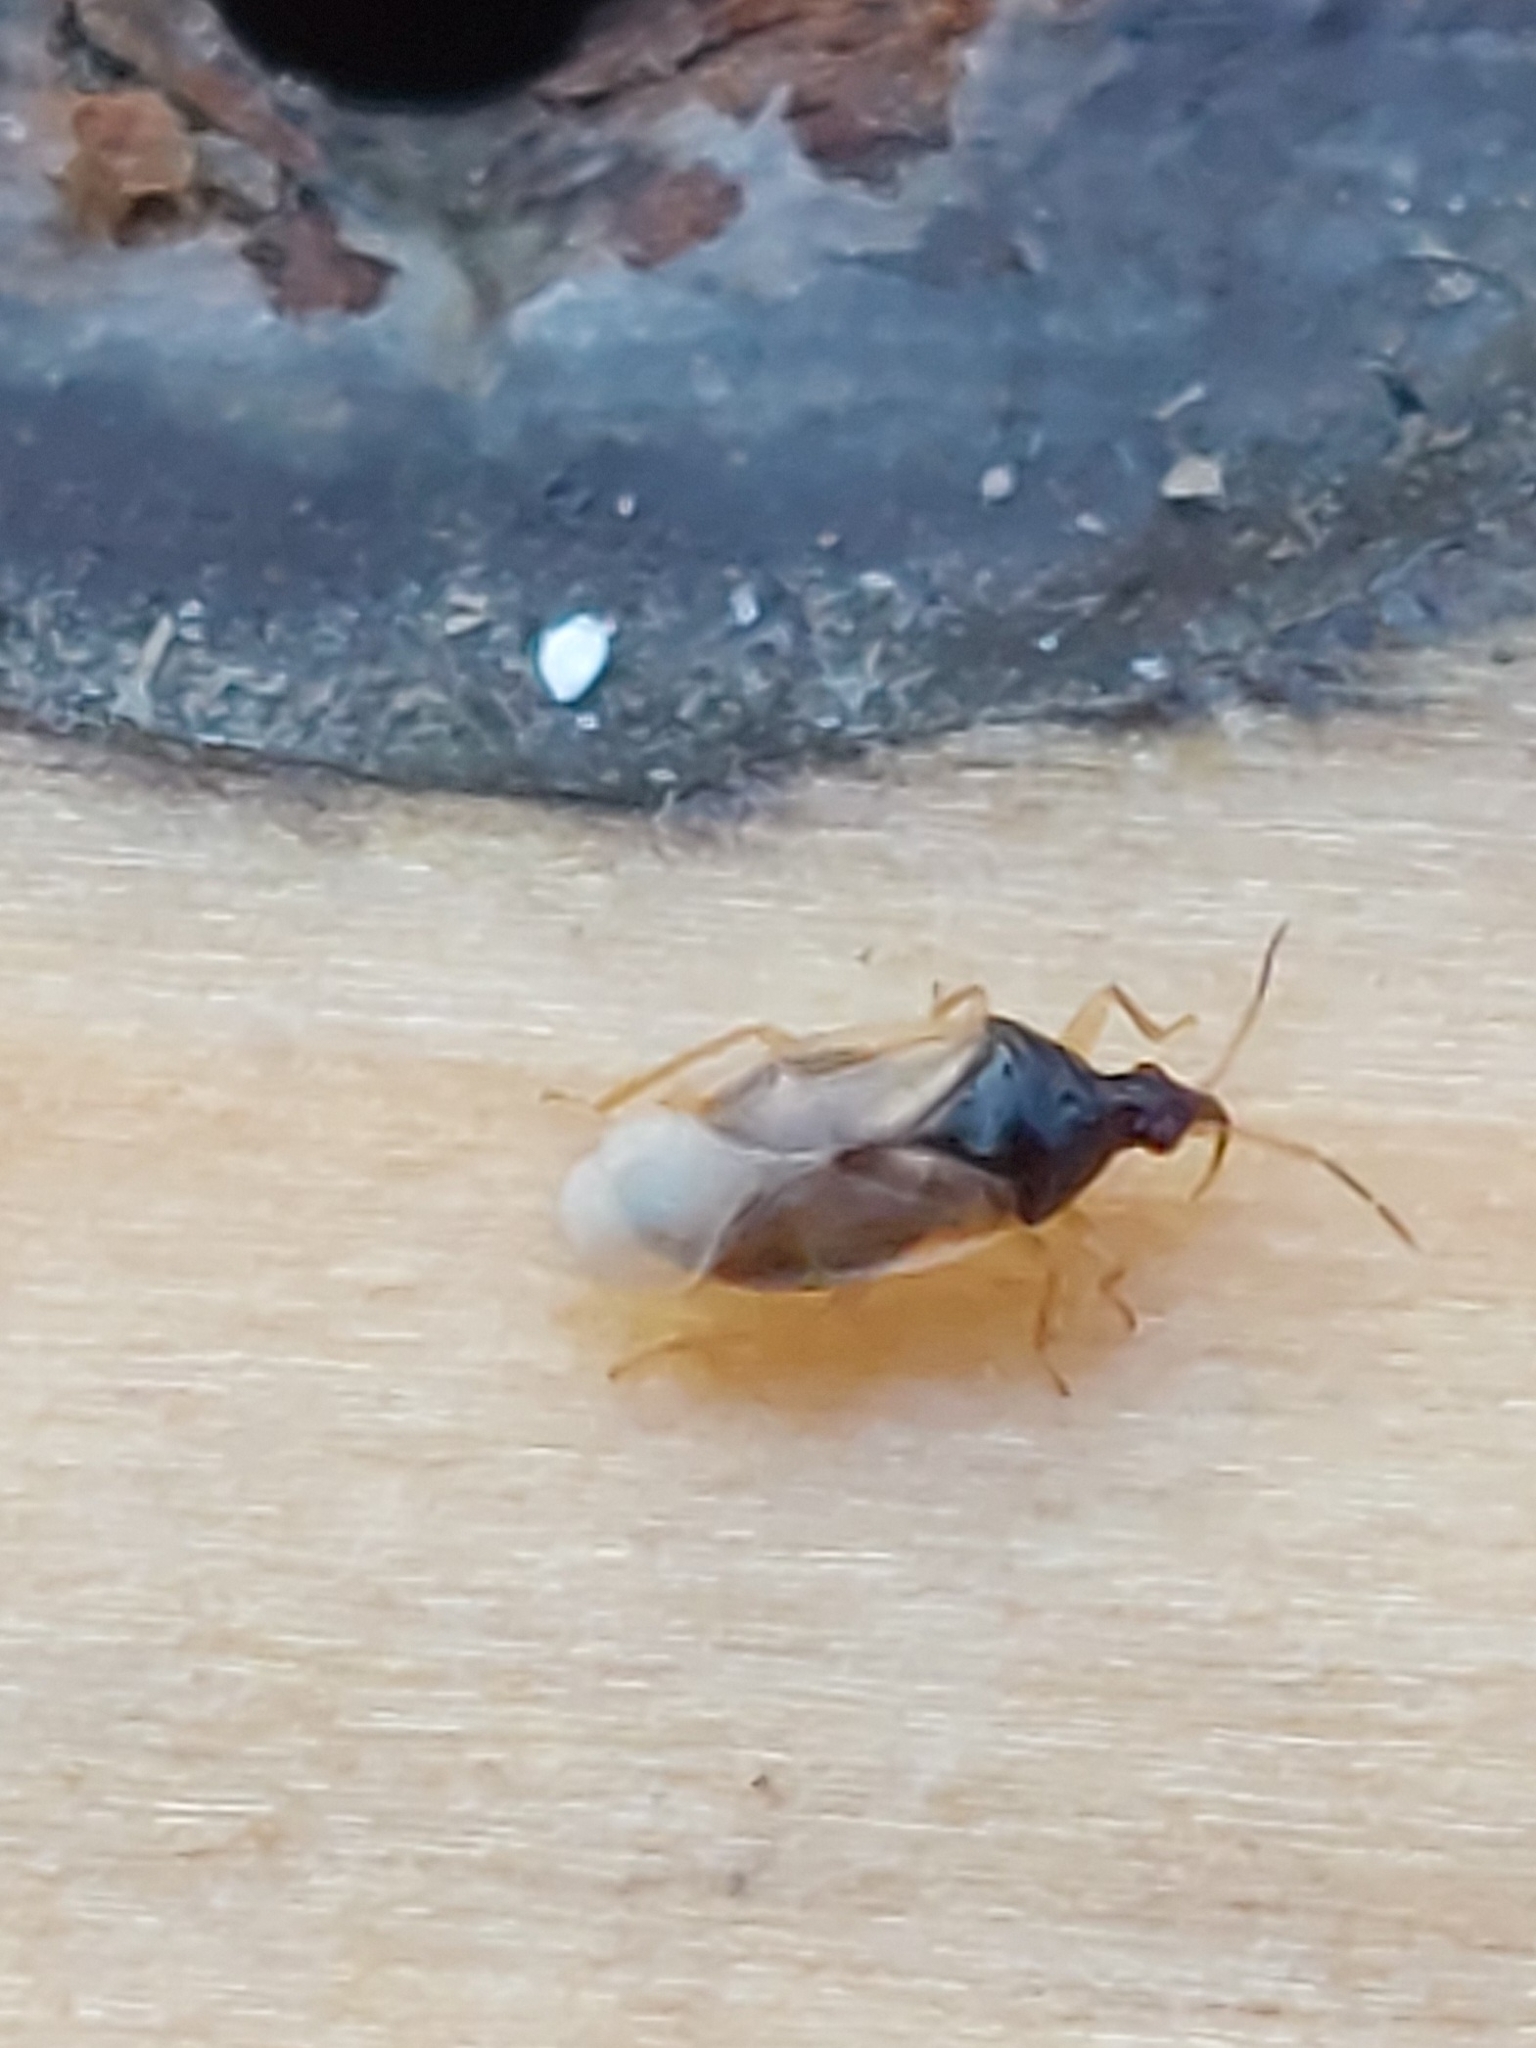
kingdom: Animalia
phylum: Arthropoda
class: Insecta
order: Hemiptera
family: Anthocoridae
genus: Orius
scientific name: Orius majusculus
